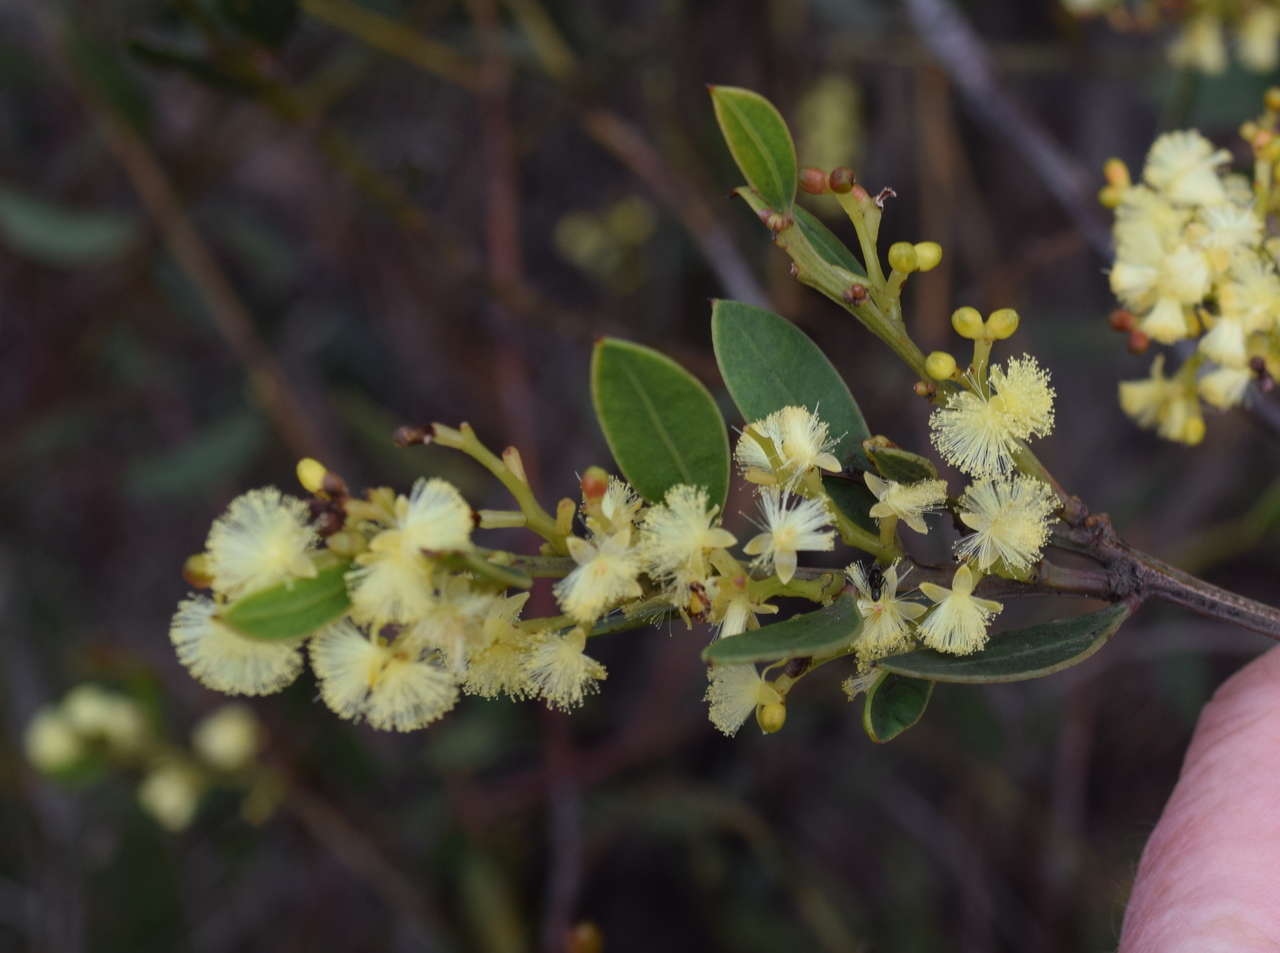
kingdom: Plantae
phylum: Tracheophyta
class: Magnoliopsida
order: Fabales
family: Fabaceae
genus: Acacia
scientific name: Acacia myrtifolia
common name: Myrtle wattle
